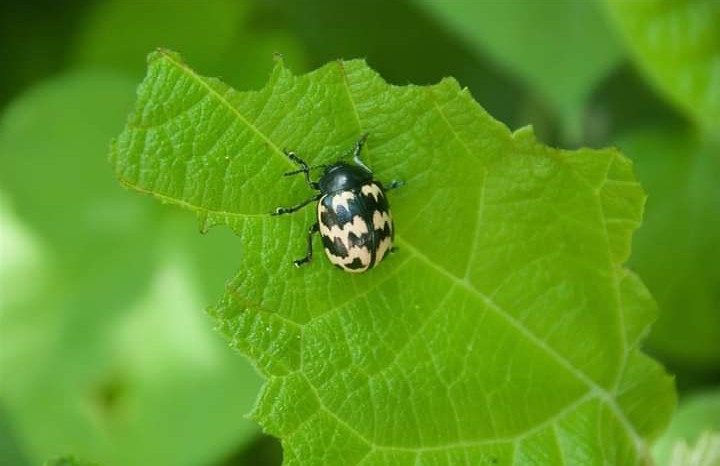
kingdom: Animalia
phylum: Arthropoda
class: Insecta
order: Coleoptera
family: Chrysomelidae
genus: Leptinotarsa
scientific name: Leptinotarsa
